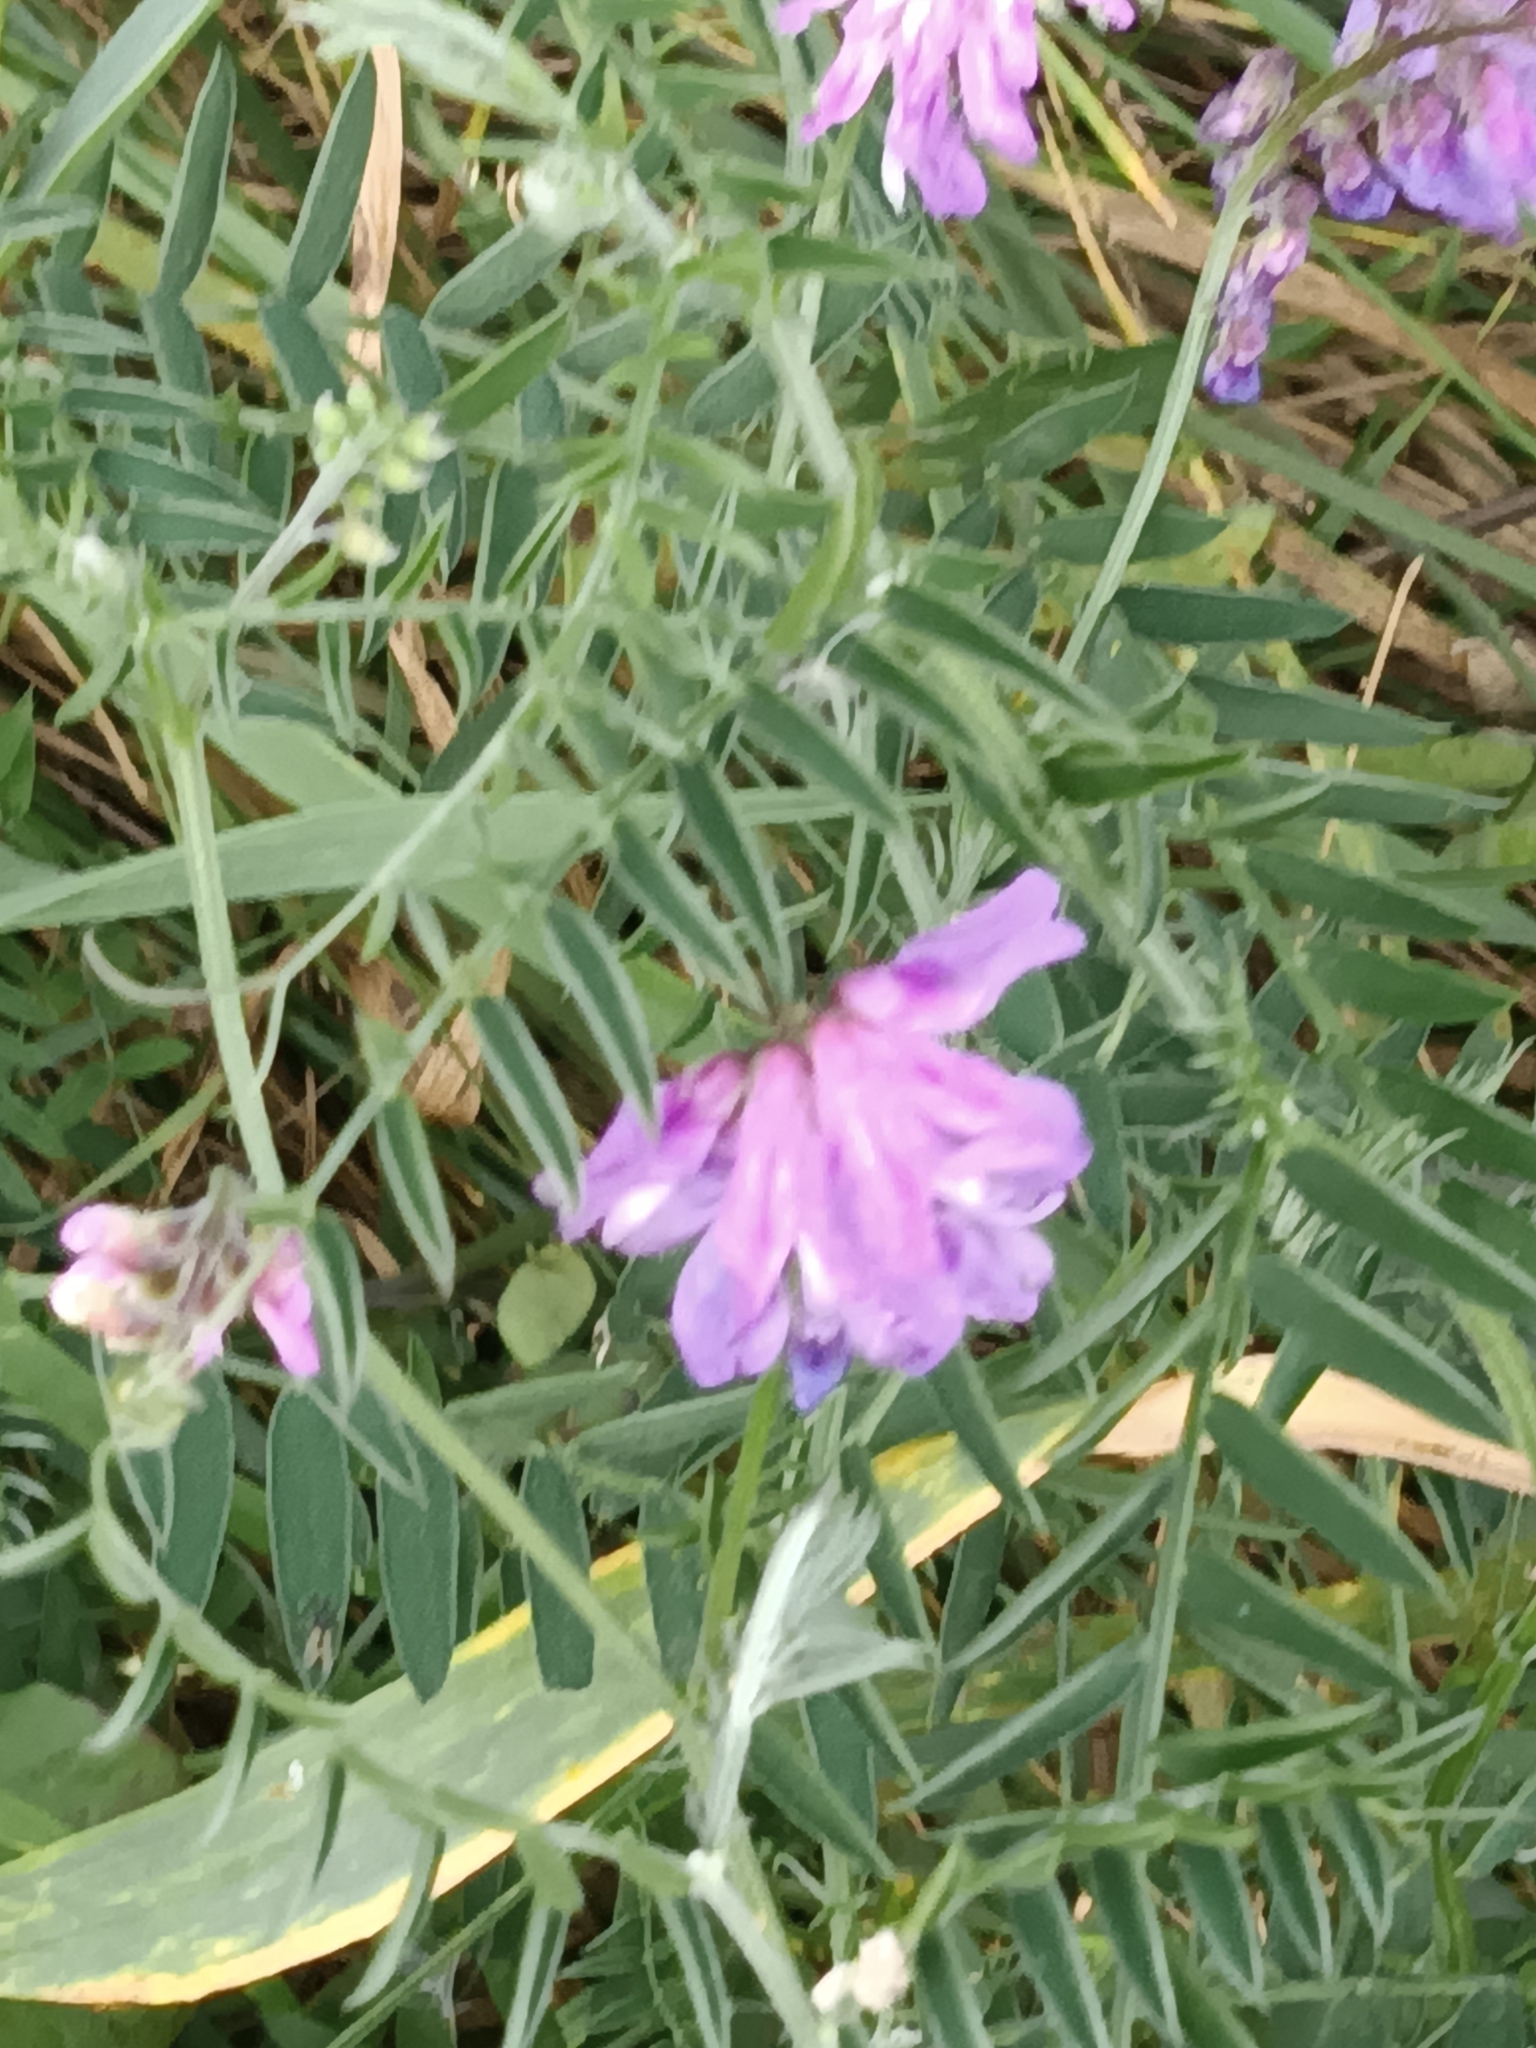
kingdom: Plantae
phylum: Tracheophyta
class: Magnoliopsida
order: Fabales
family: Fabaceae
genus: Vicia
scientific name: Vicia cracca
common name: Bird vetch
